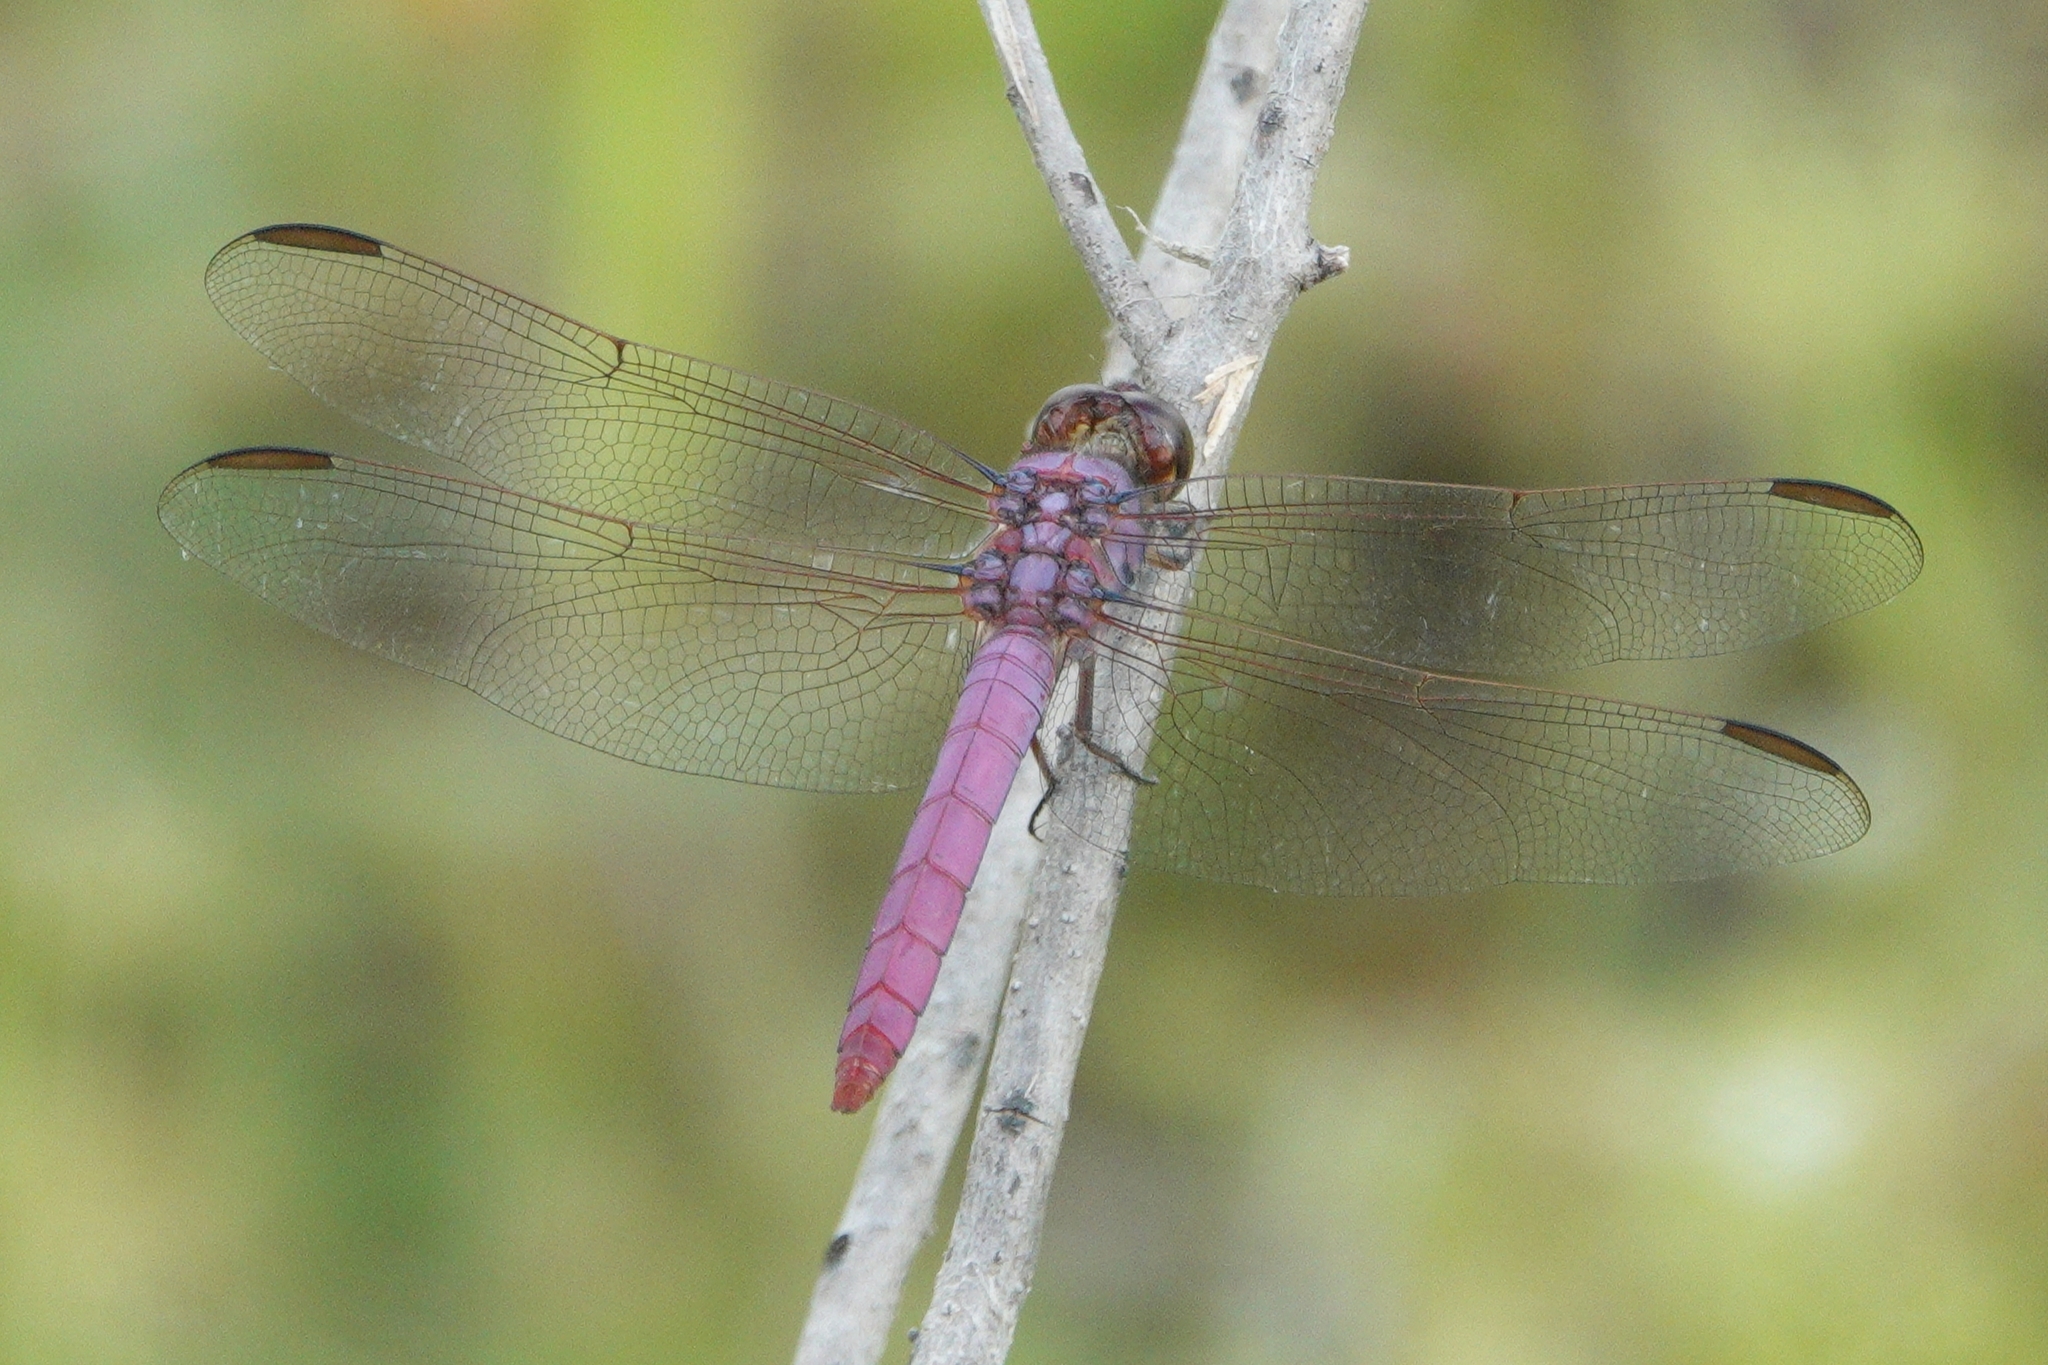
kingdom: Animalia
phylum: Arthropoda
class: Insecta
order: Odonata
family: Libellulidae
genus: Orthemis
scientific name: Orthemis ferruginea
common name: Roseate skimmer
